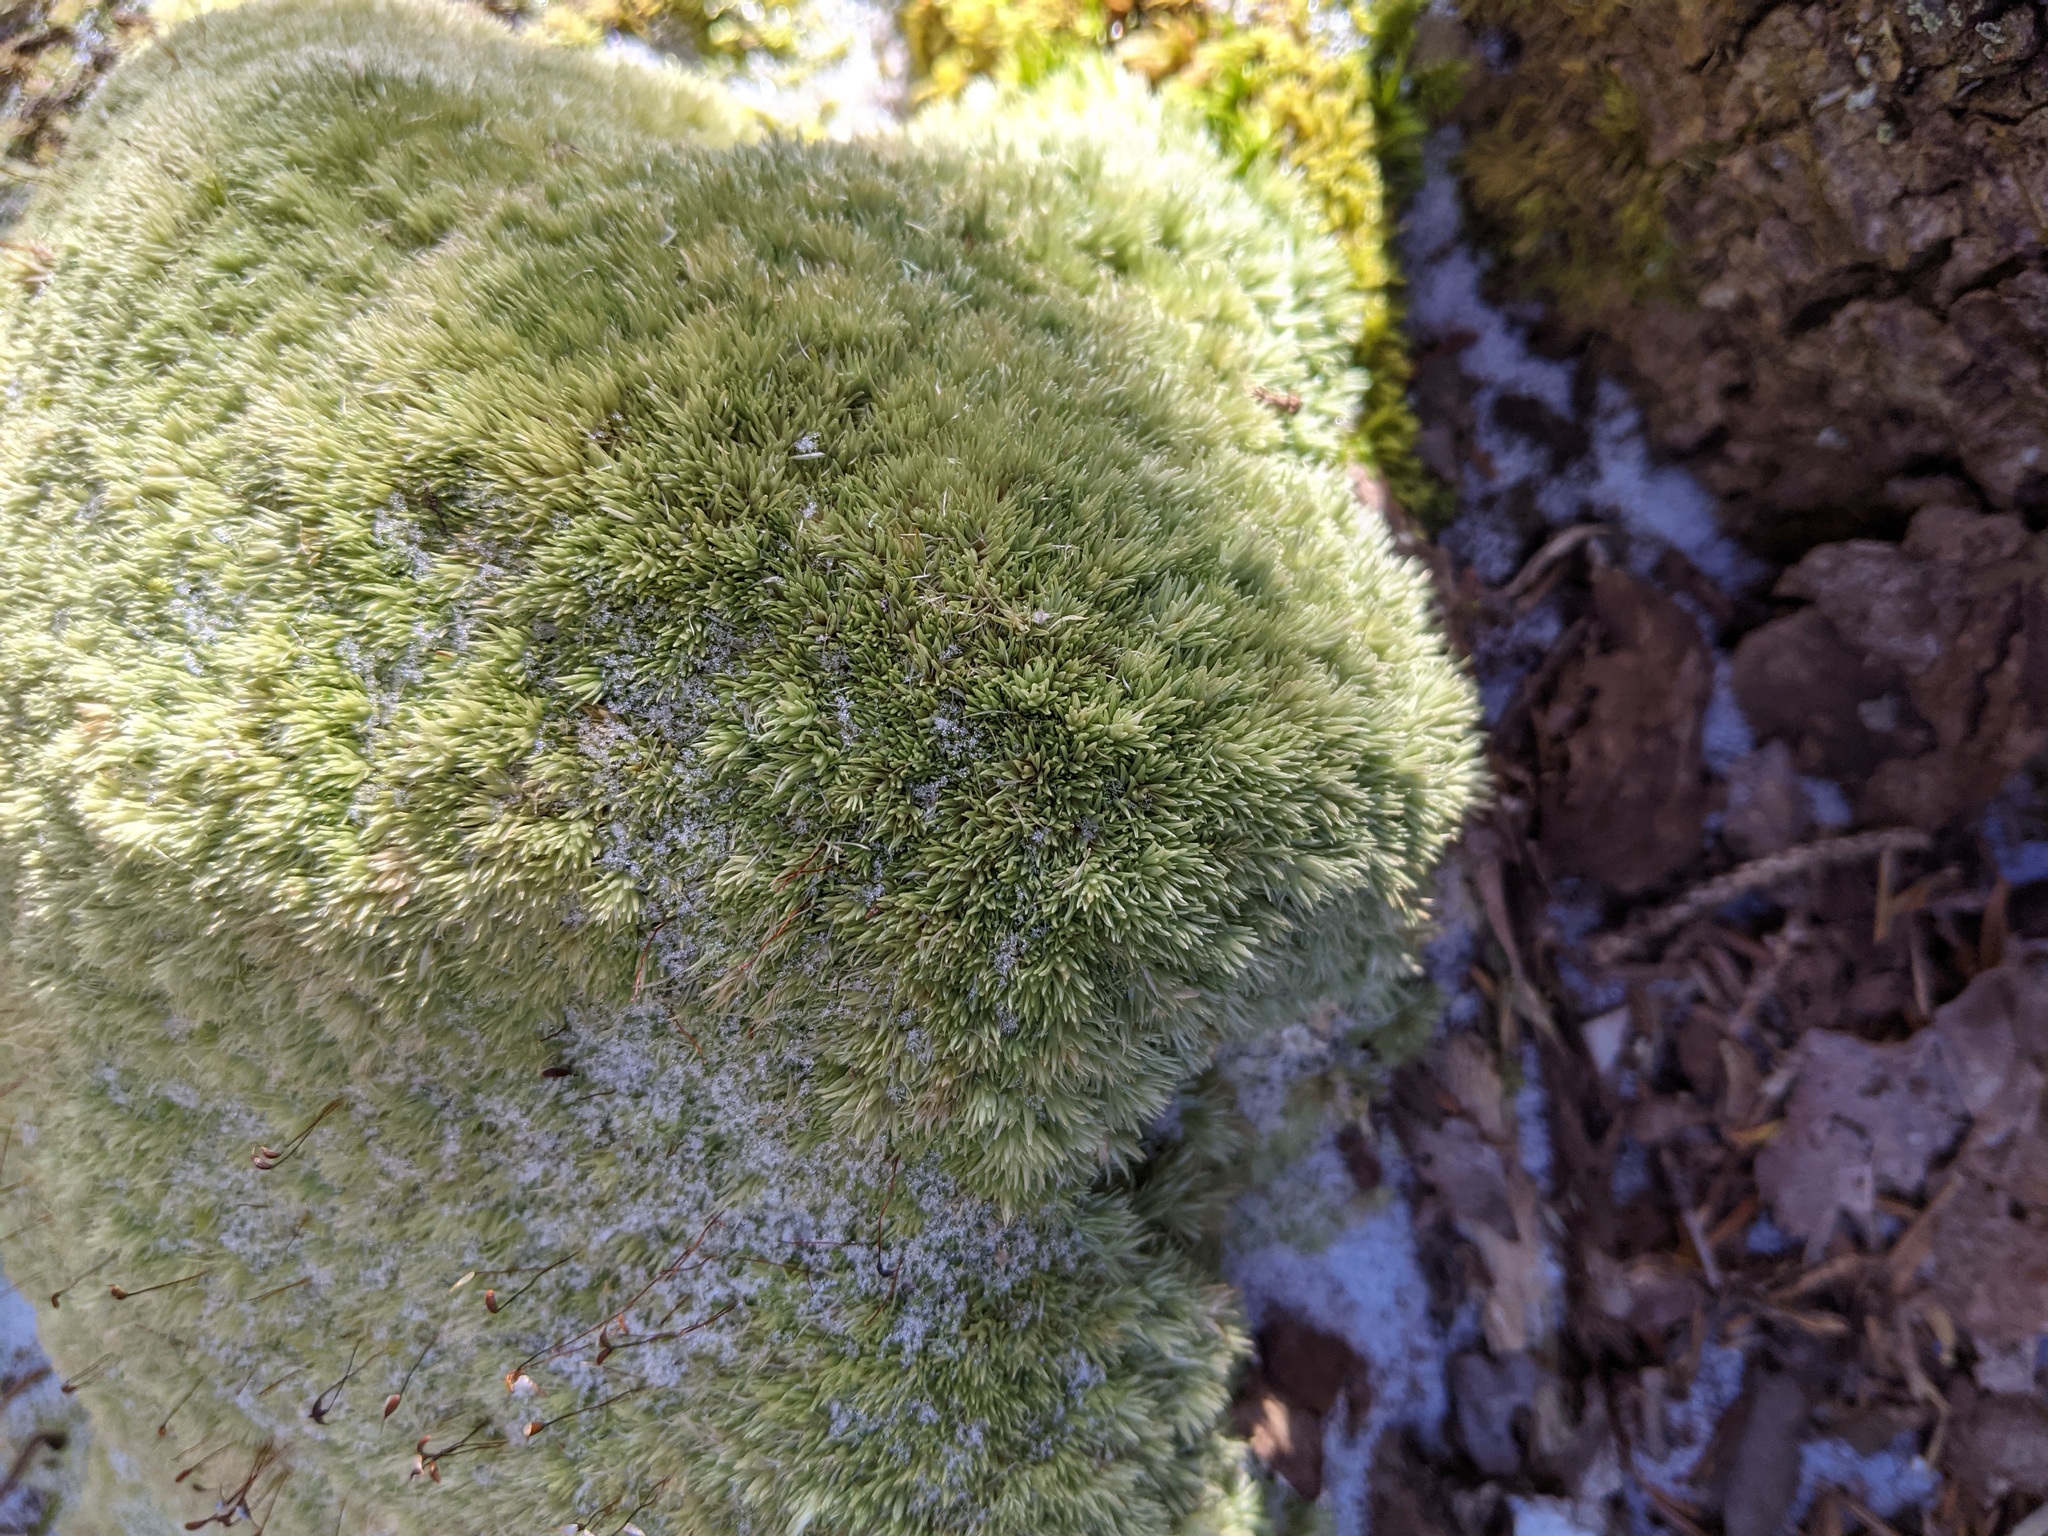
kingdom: Plantae
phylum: Bryophyta
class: Bryopsida
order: Dicranales
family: Leucobryaceae
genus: Leucobryum
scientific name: Leucobryum glaucum
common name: Large white-moss
